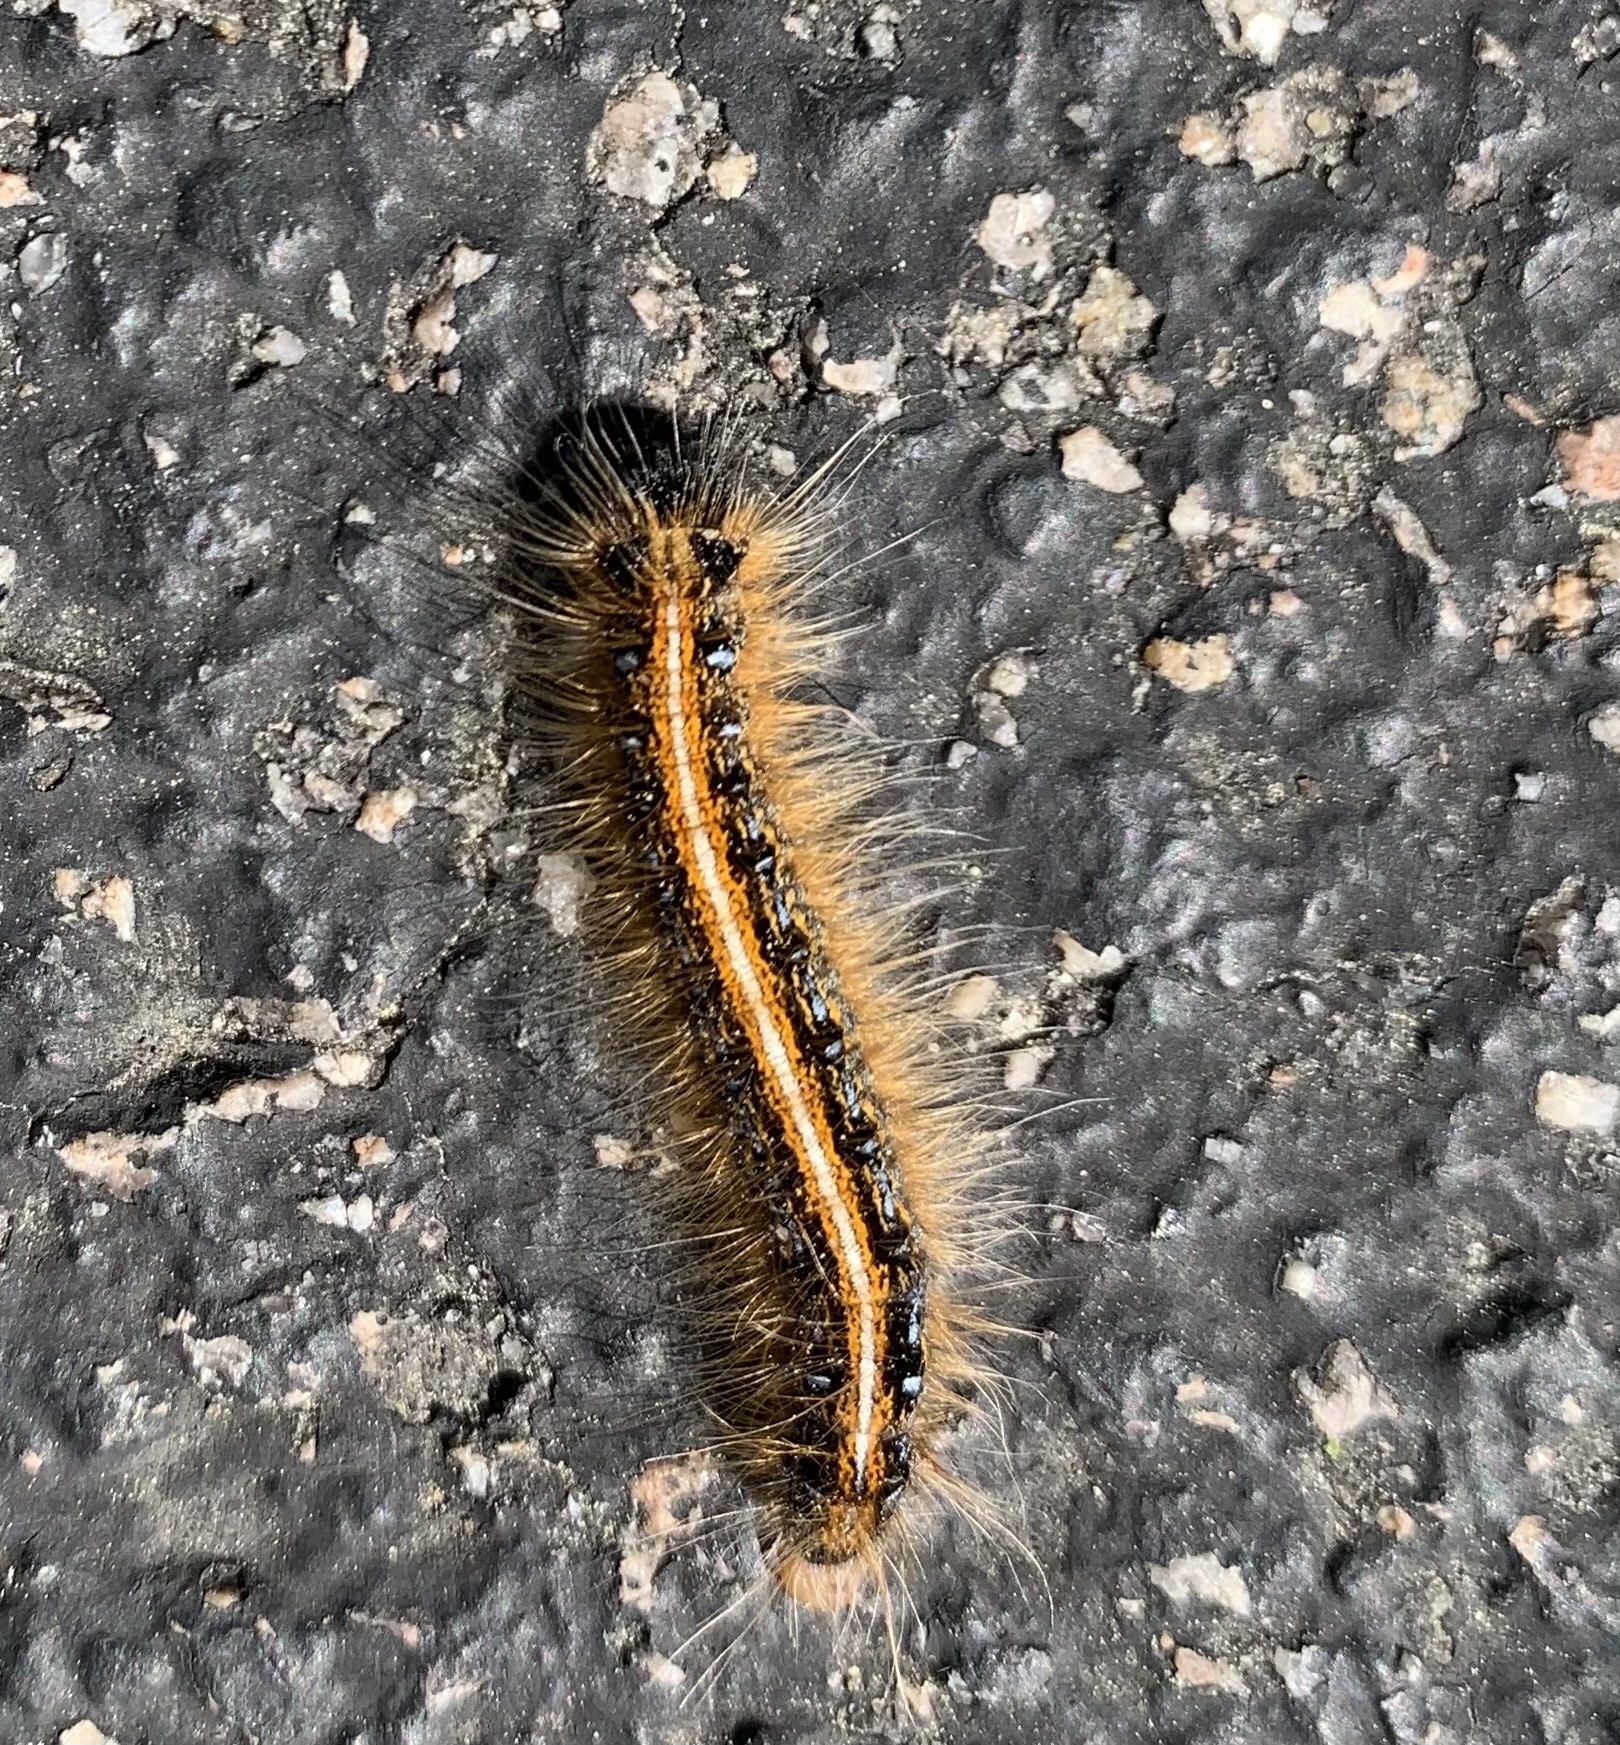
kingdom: Animalia
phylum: Arthropoda
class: Insecta
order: Lepidoptera
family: Lasiocampidae
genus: Malacosoma
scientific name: Malacosoma americana
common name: Eastern tent caterpillar moth
